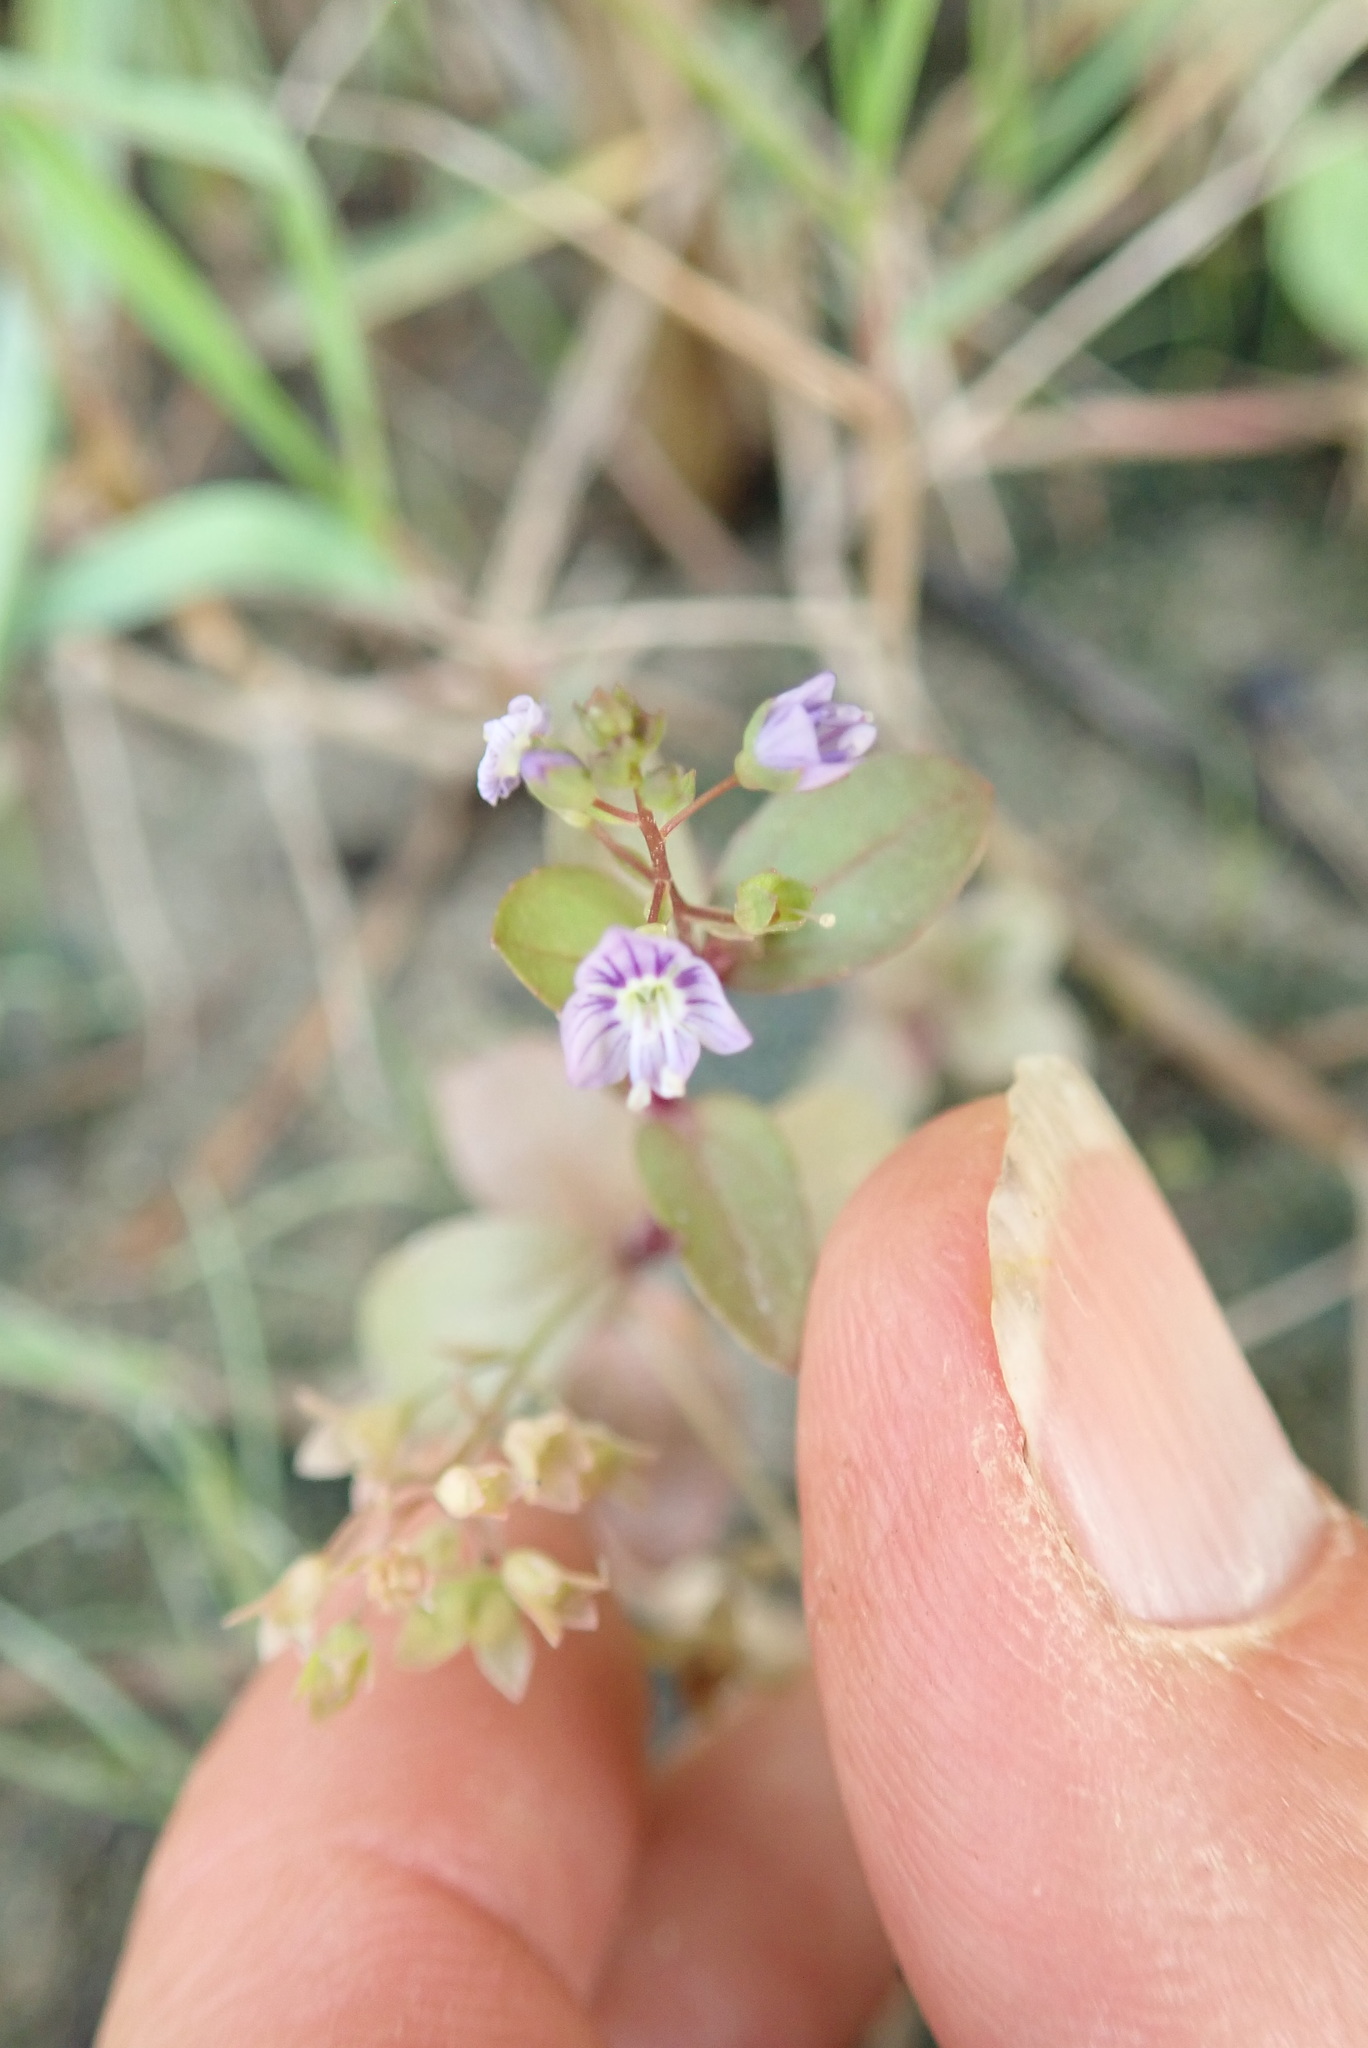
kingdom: Plantae
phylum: Tracheophyta
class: Magnoliopsida
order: Lamiales
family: Plantaginaceae
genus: Veronica
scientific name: Veronica anagallis-aquatica
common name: Water speedwell
